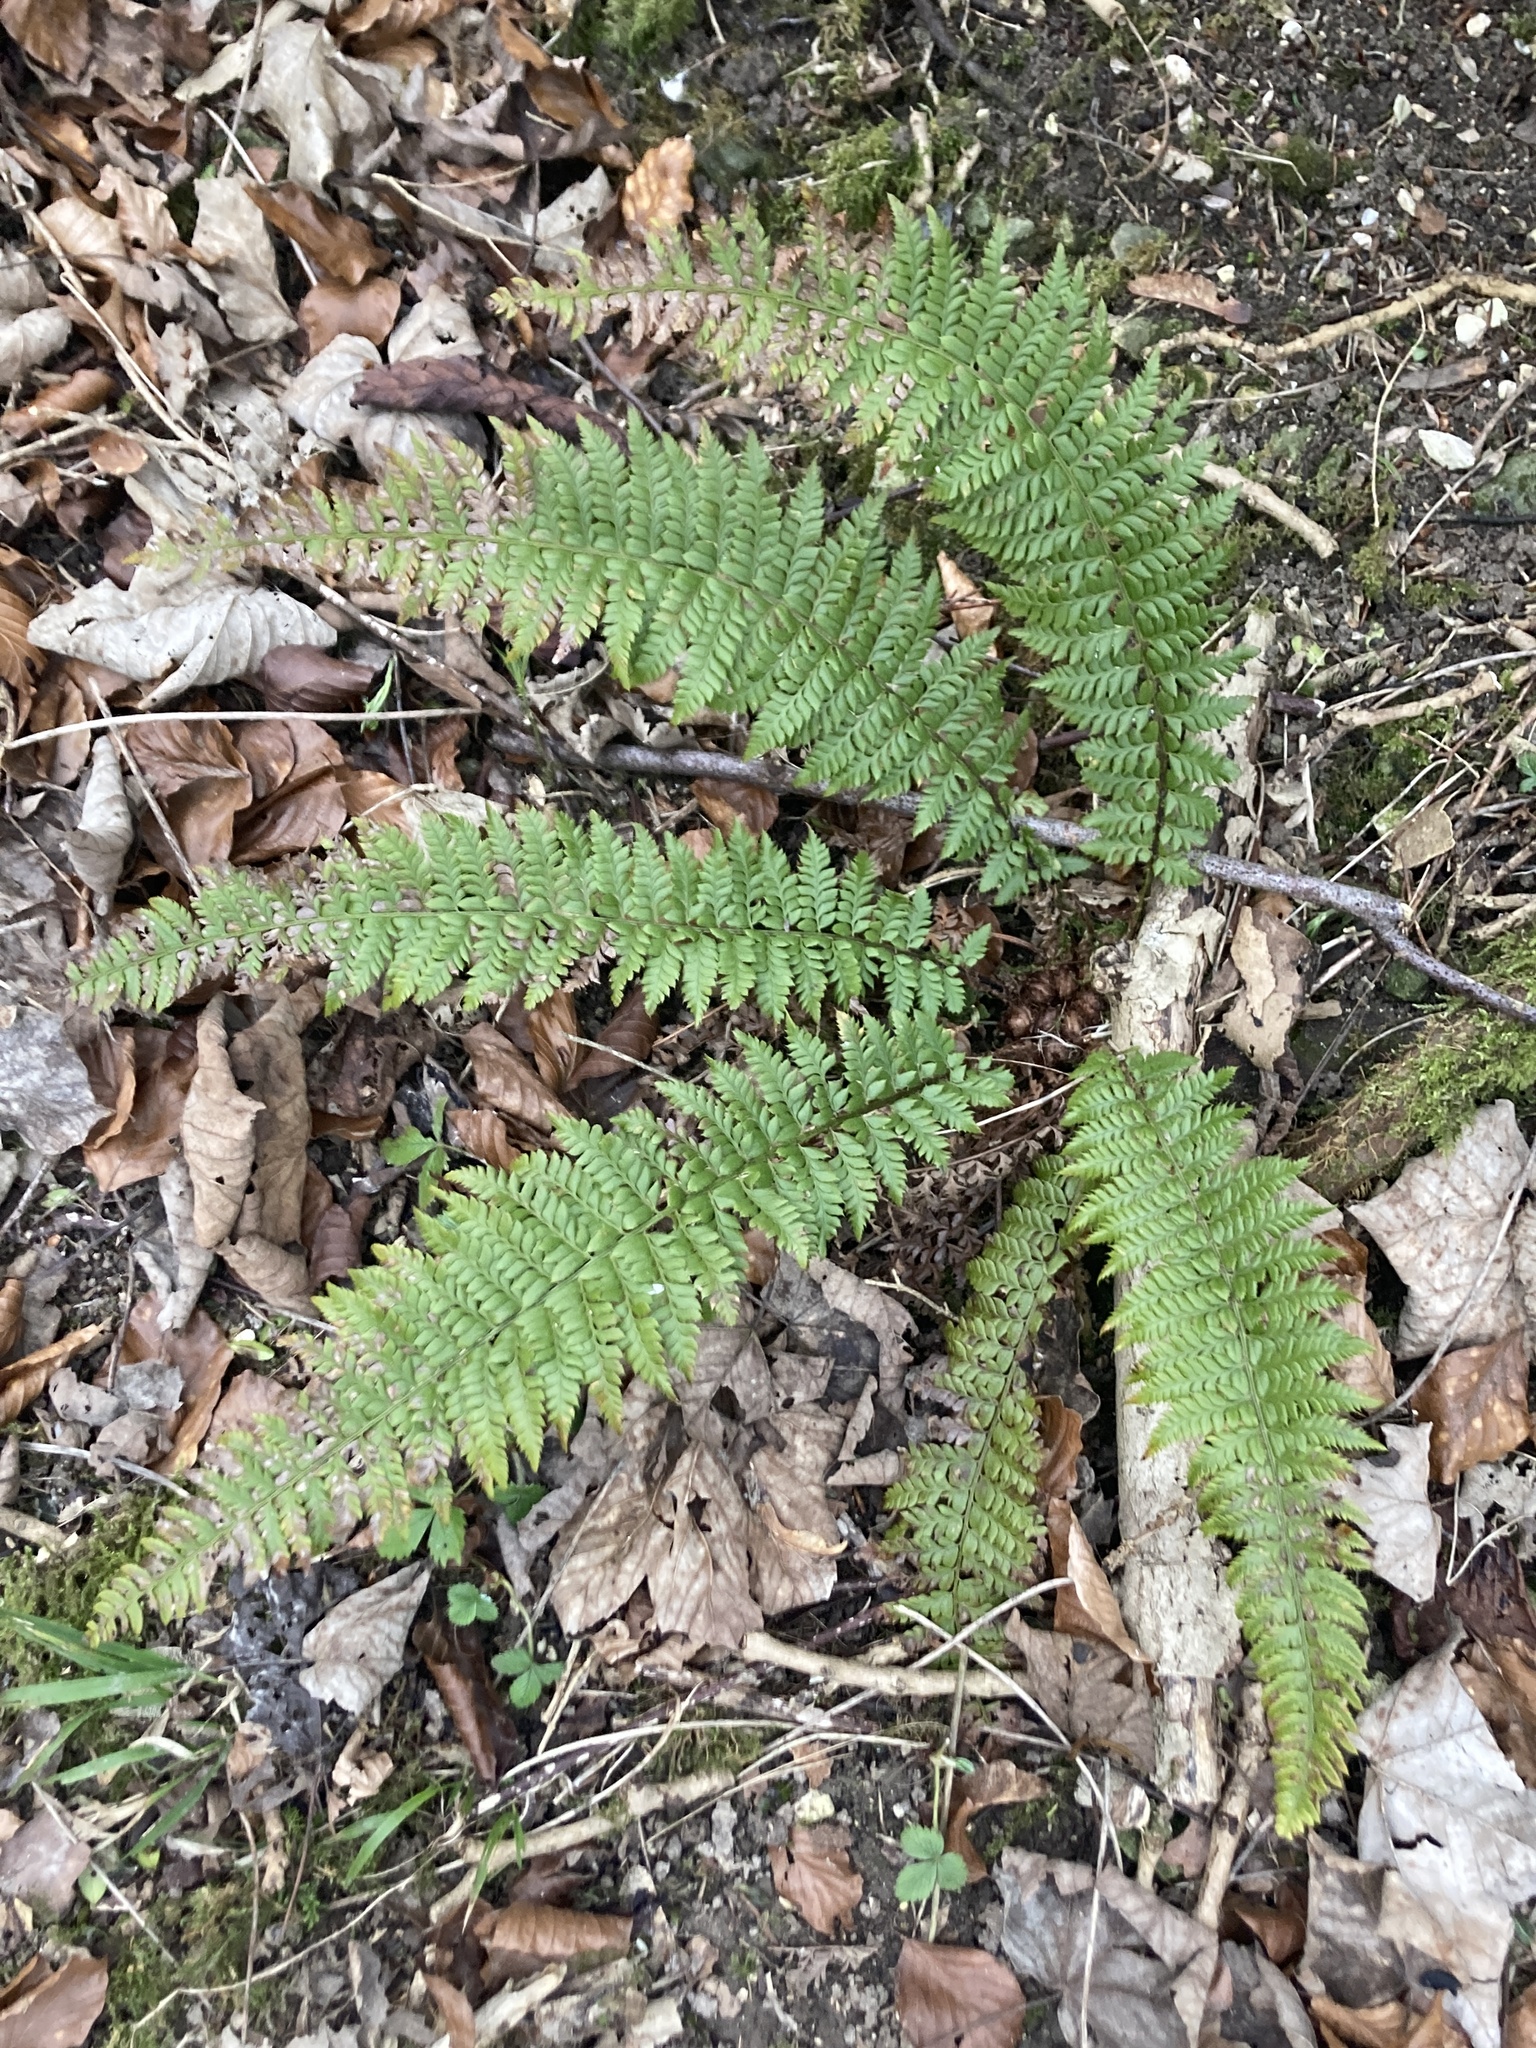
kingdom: Plantae
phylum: Tracheophyta
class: Polypodiopsida
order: Polypodiales
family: Dryopteridaceae
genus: Polystichum
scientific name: Polystichum aculeatum
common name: Hard shield-fern
